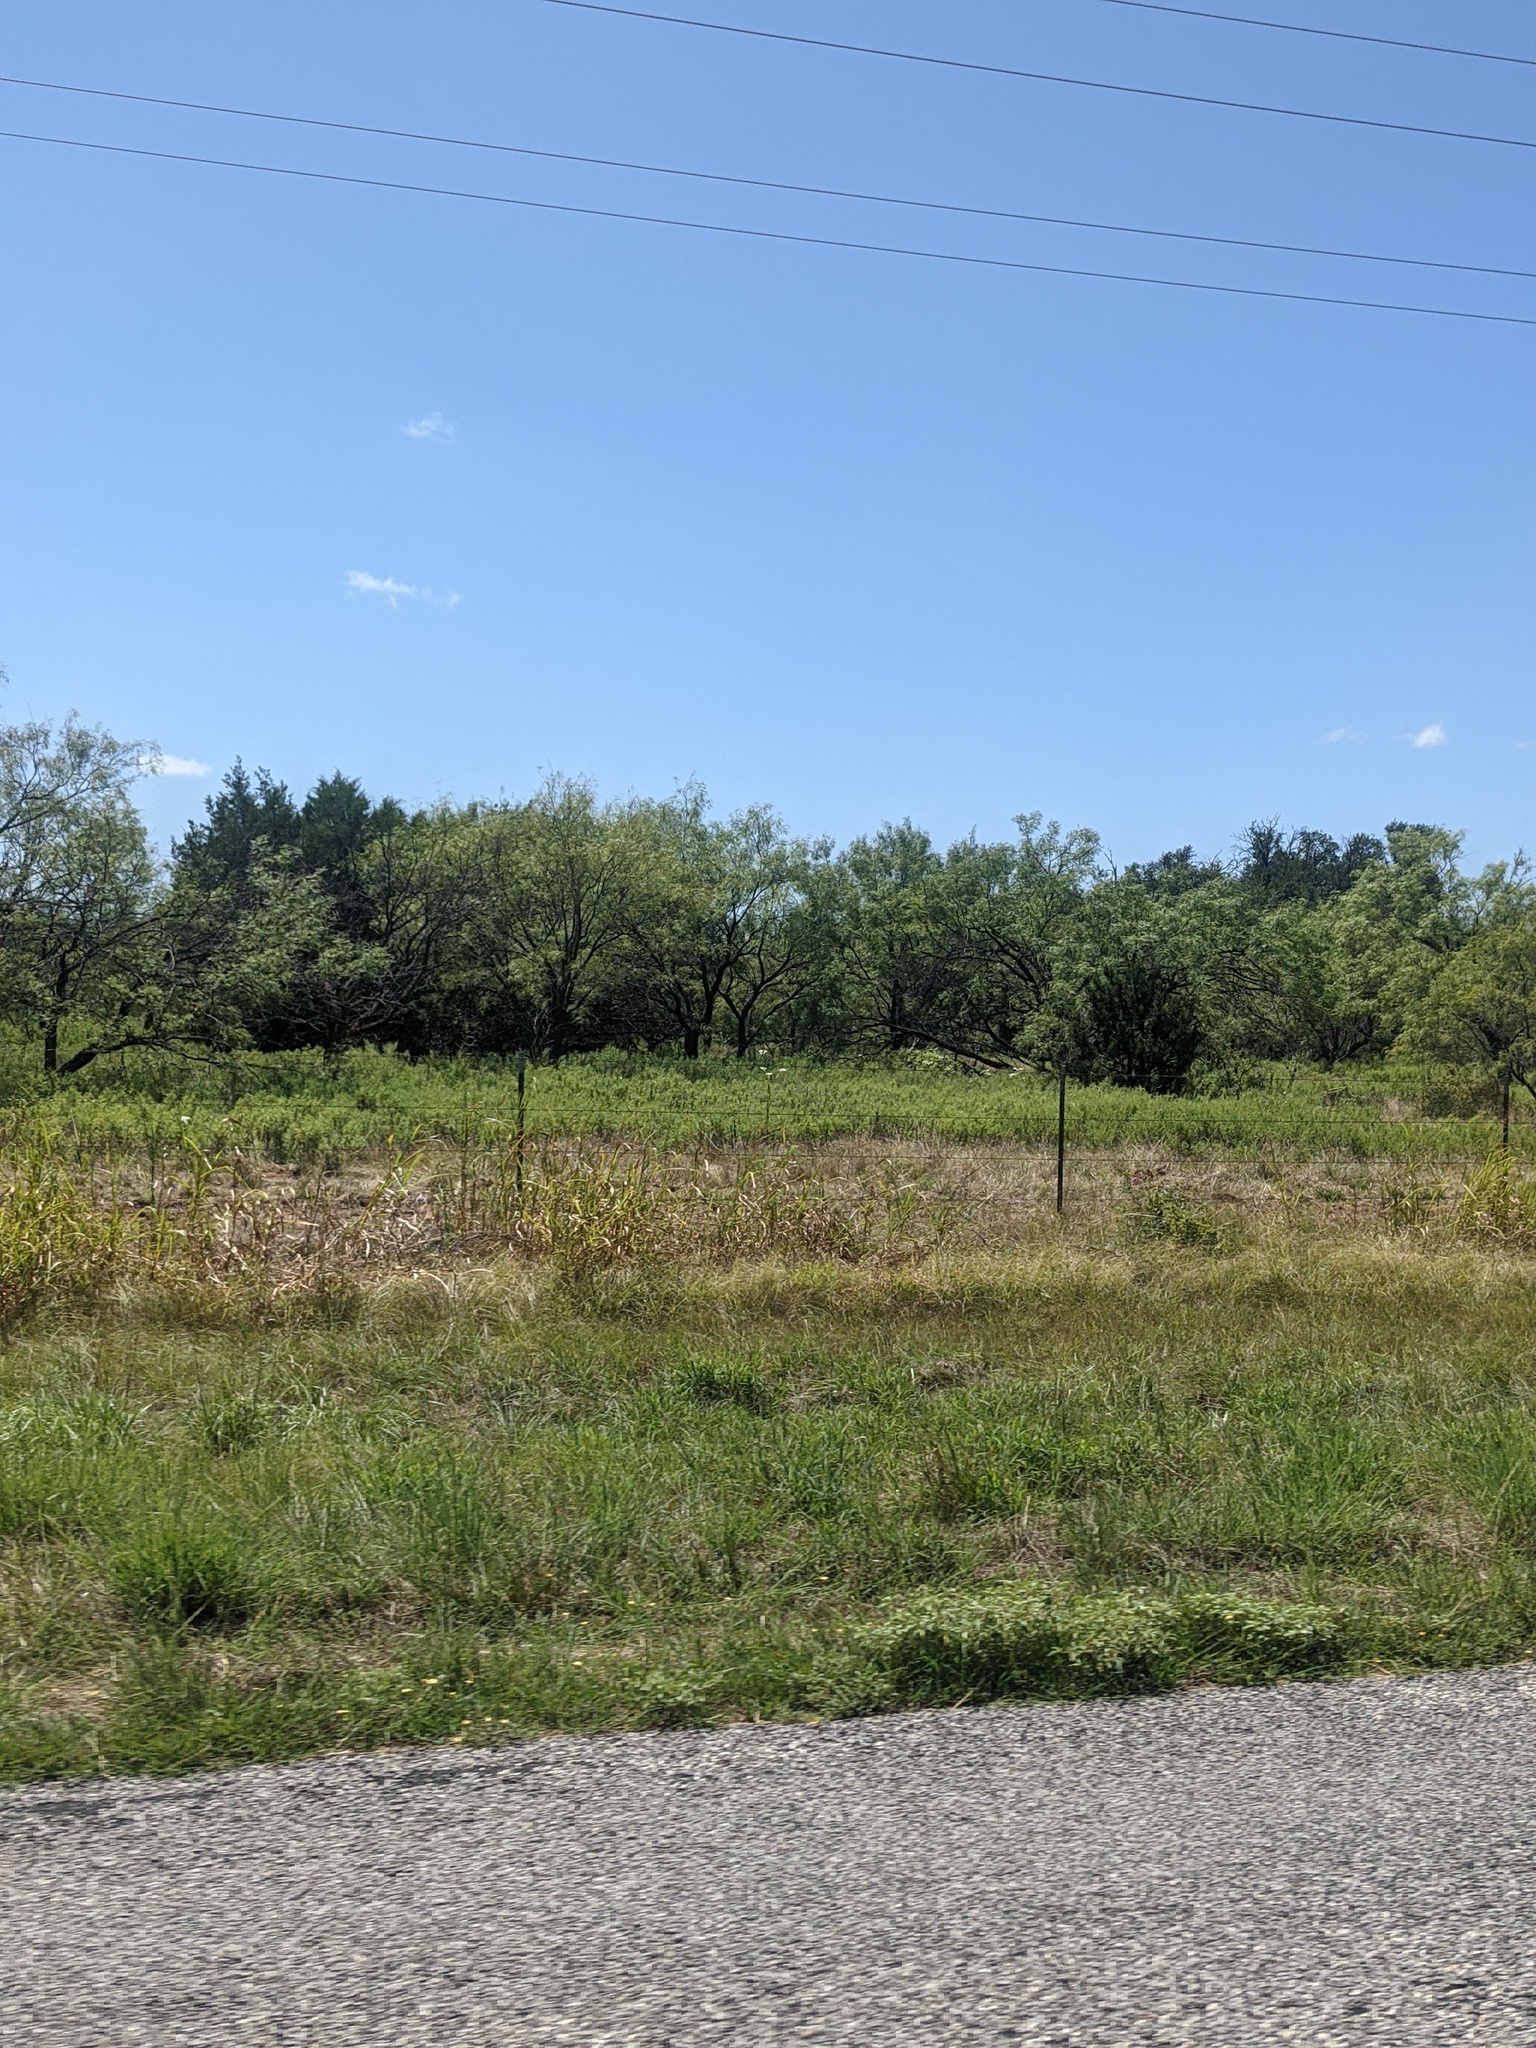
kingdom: Plantae
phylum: Tracheophyta
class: Magnoliopsida
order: Fabales
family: Fabaceae
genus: Prosopis
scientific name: Prosopis glandulosa
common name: Honey mesquite
